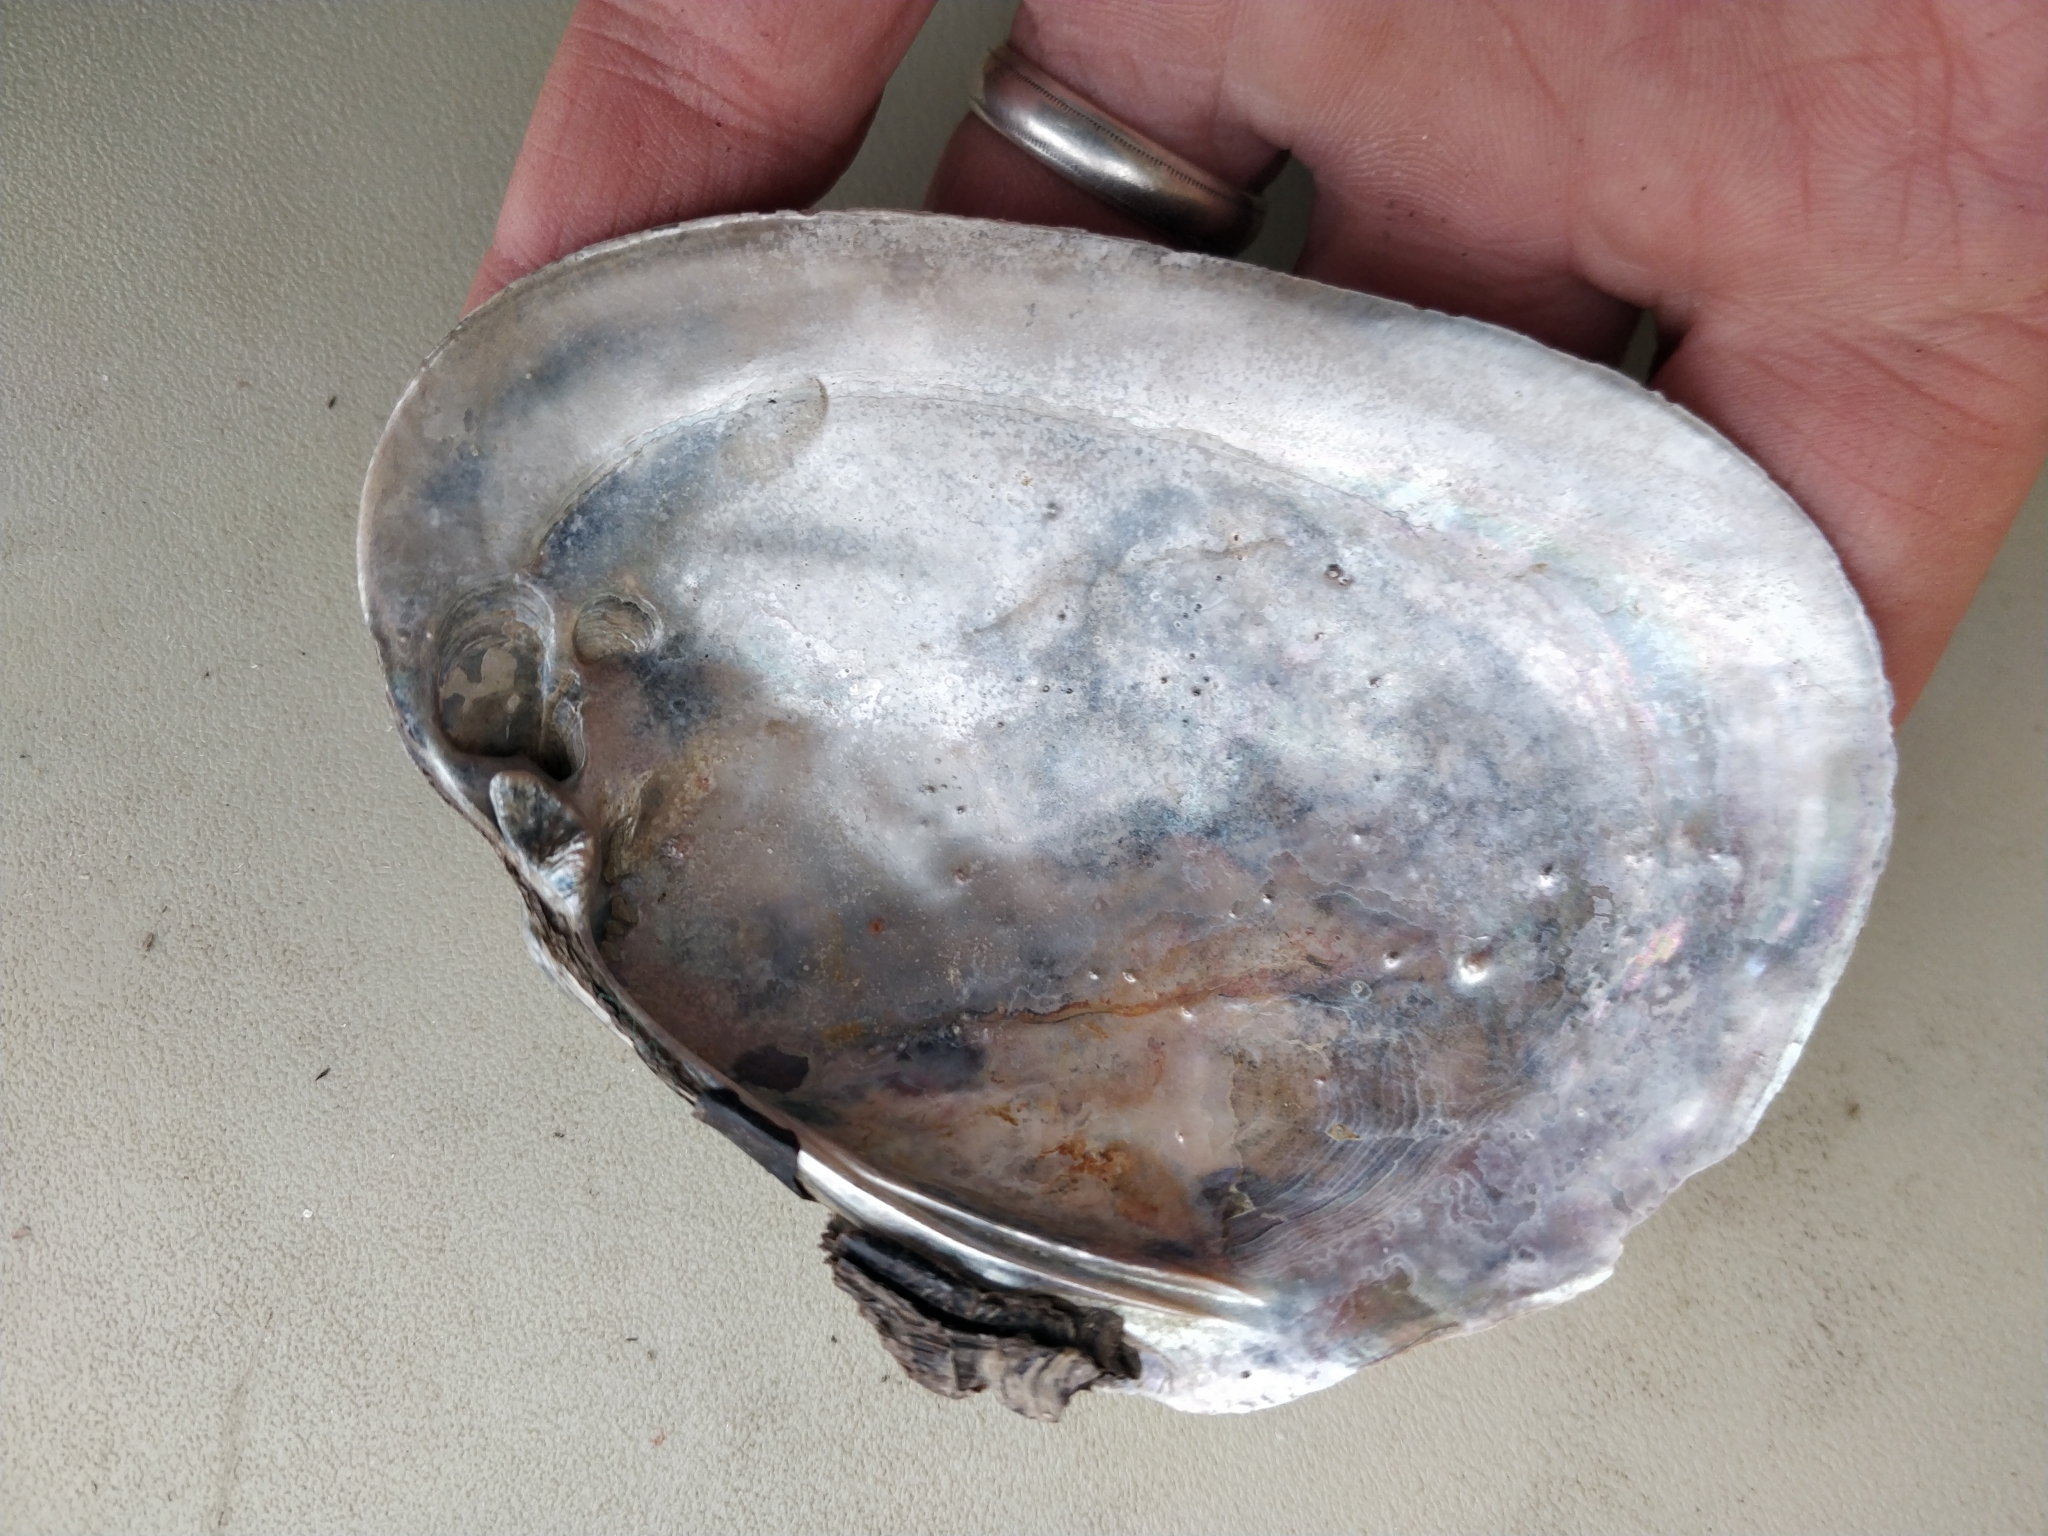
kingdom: Animalia
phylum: Mollusca
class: Bivalvia
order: Unionida
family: Unionidae
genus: Potamilus
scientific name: Potamilus alatus
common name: Pink heelsplitter
